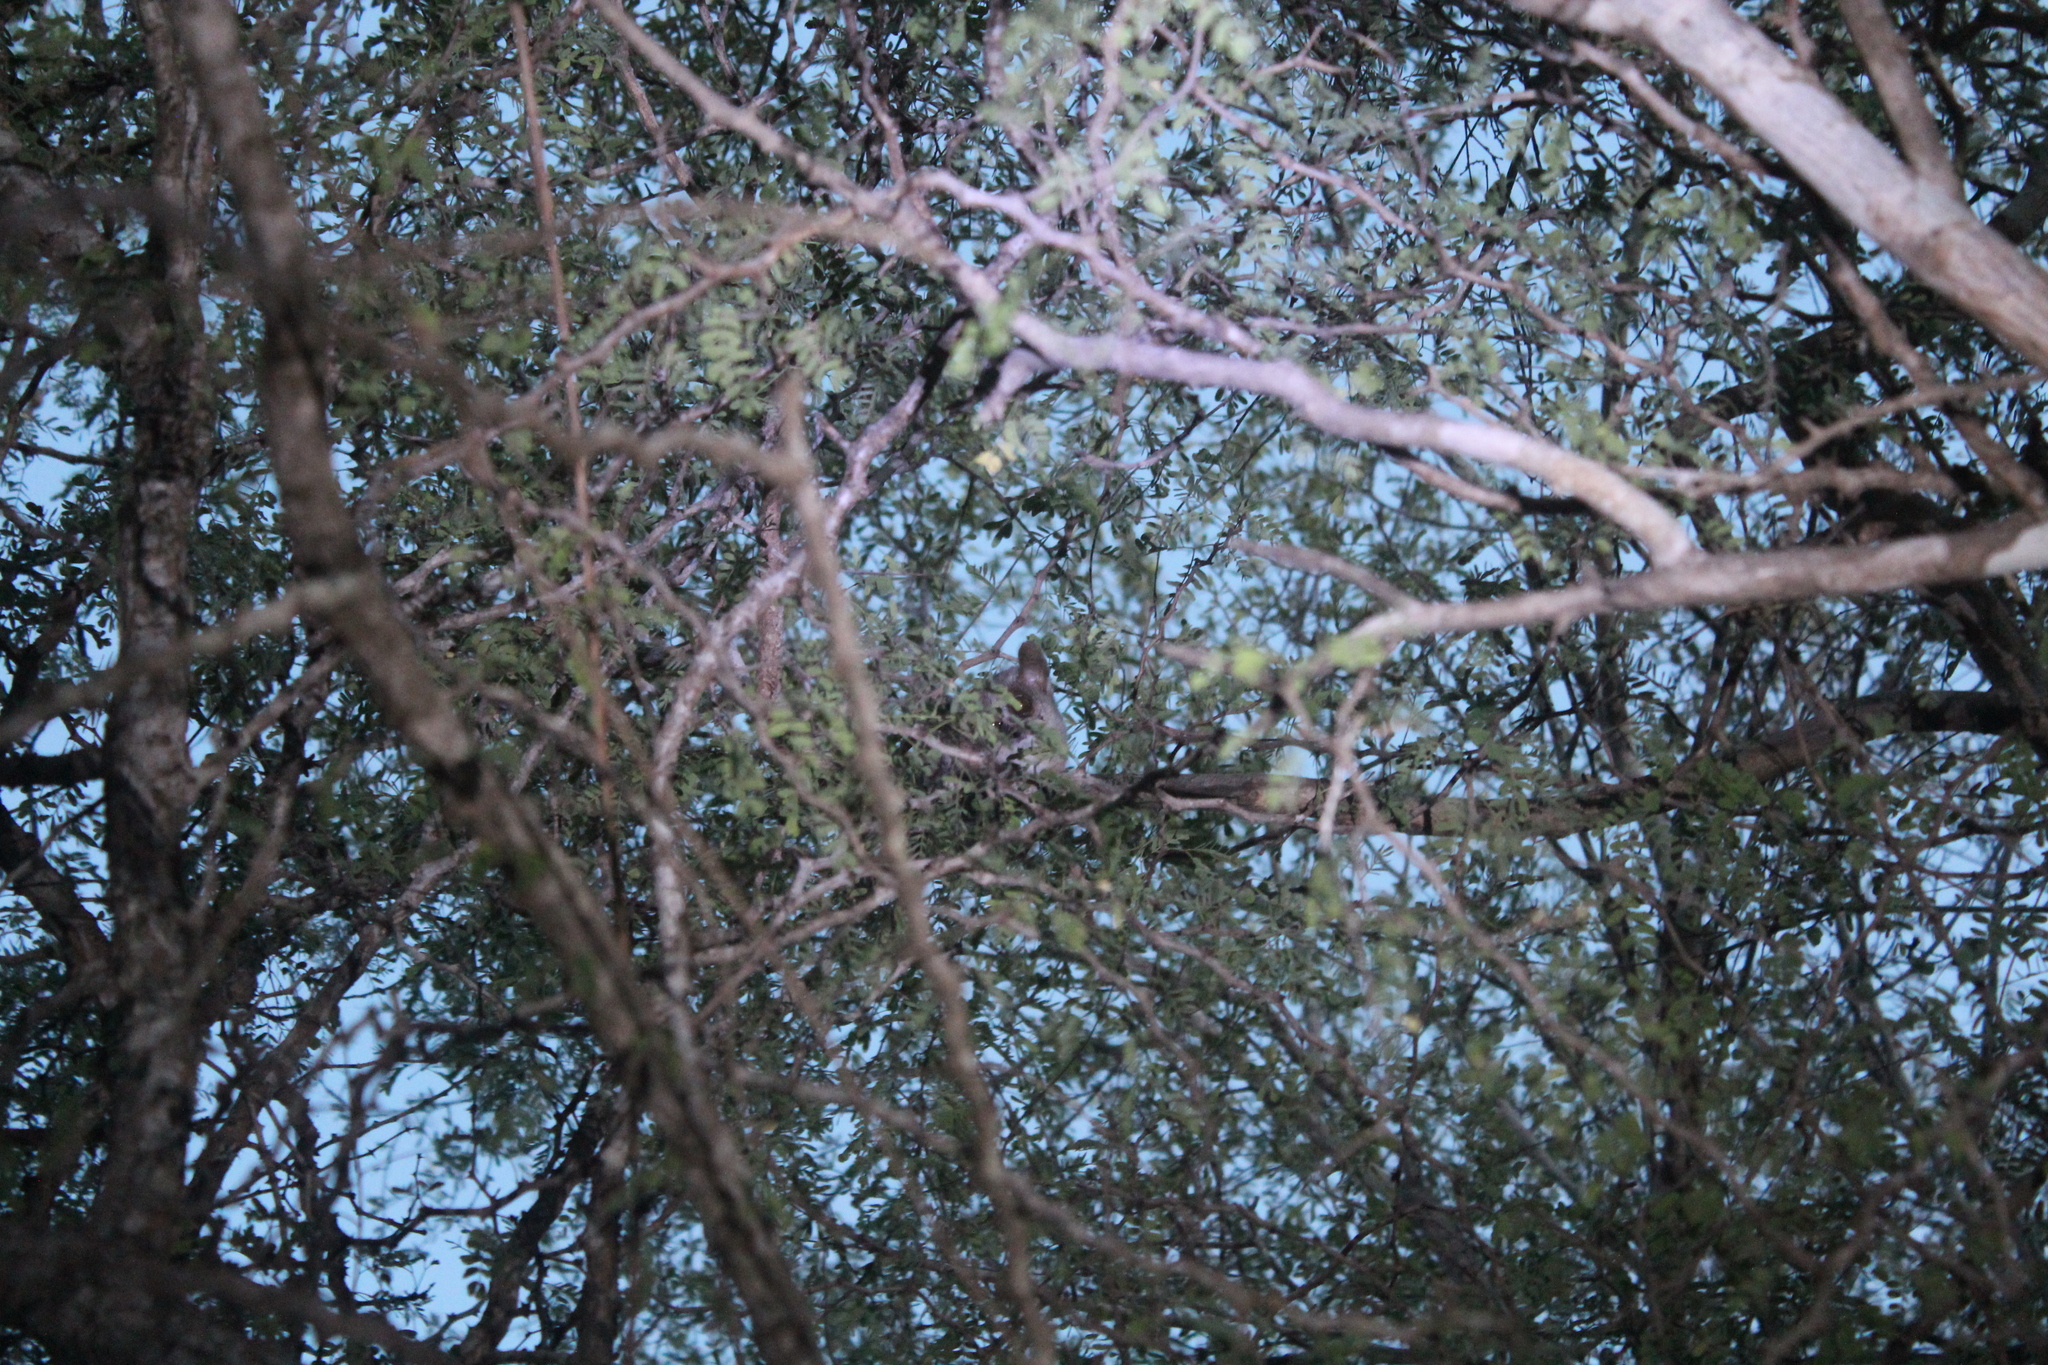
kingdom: Animalia
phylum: Chordata
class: Mammalia
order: Primates
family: Cheirogaleidae
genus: Microcebus
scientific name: Microcebus murinus
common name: Gray mouse lemur
